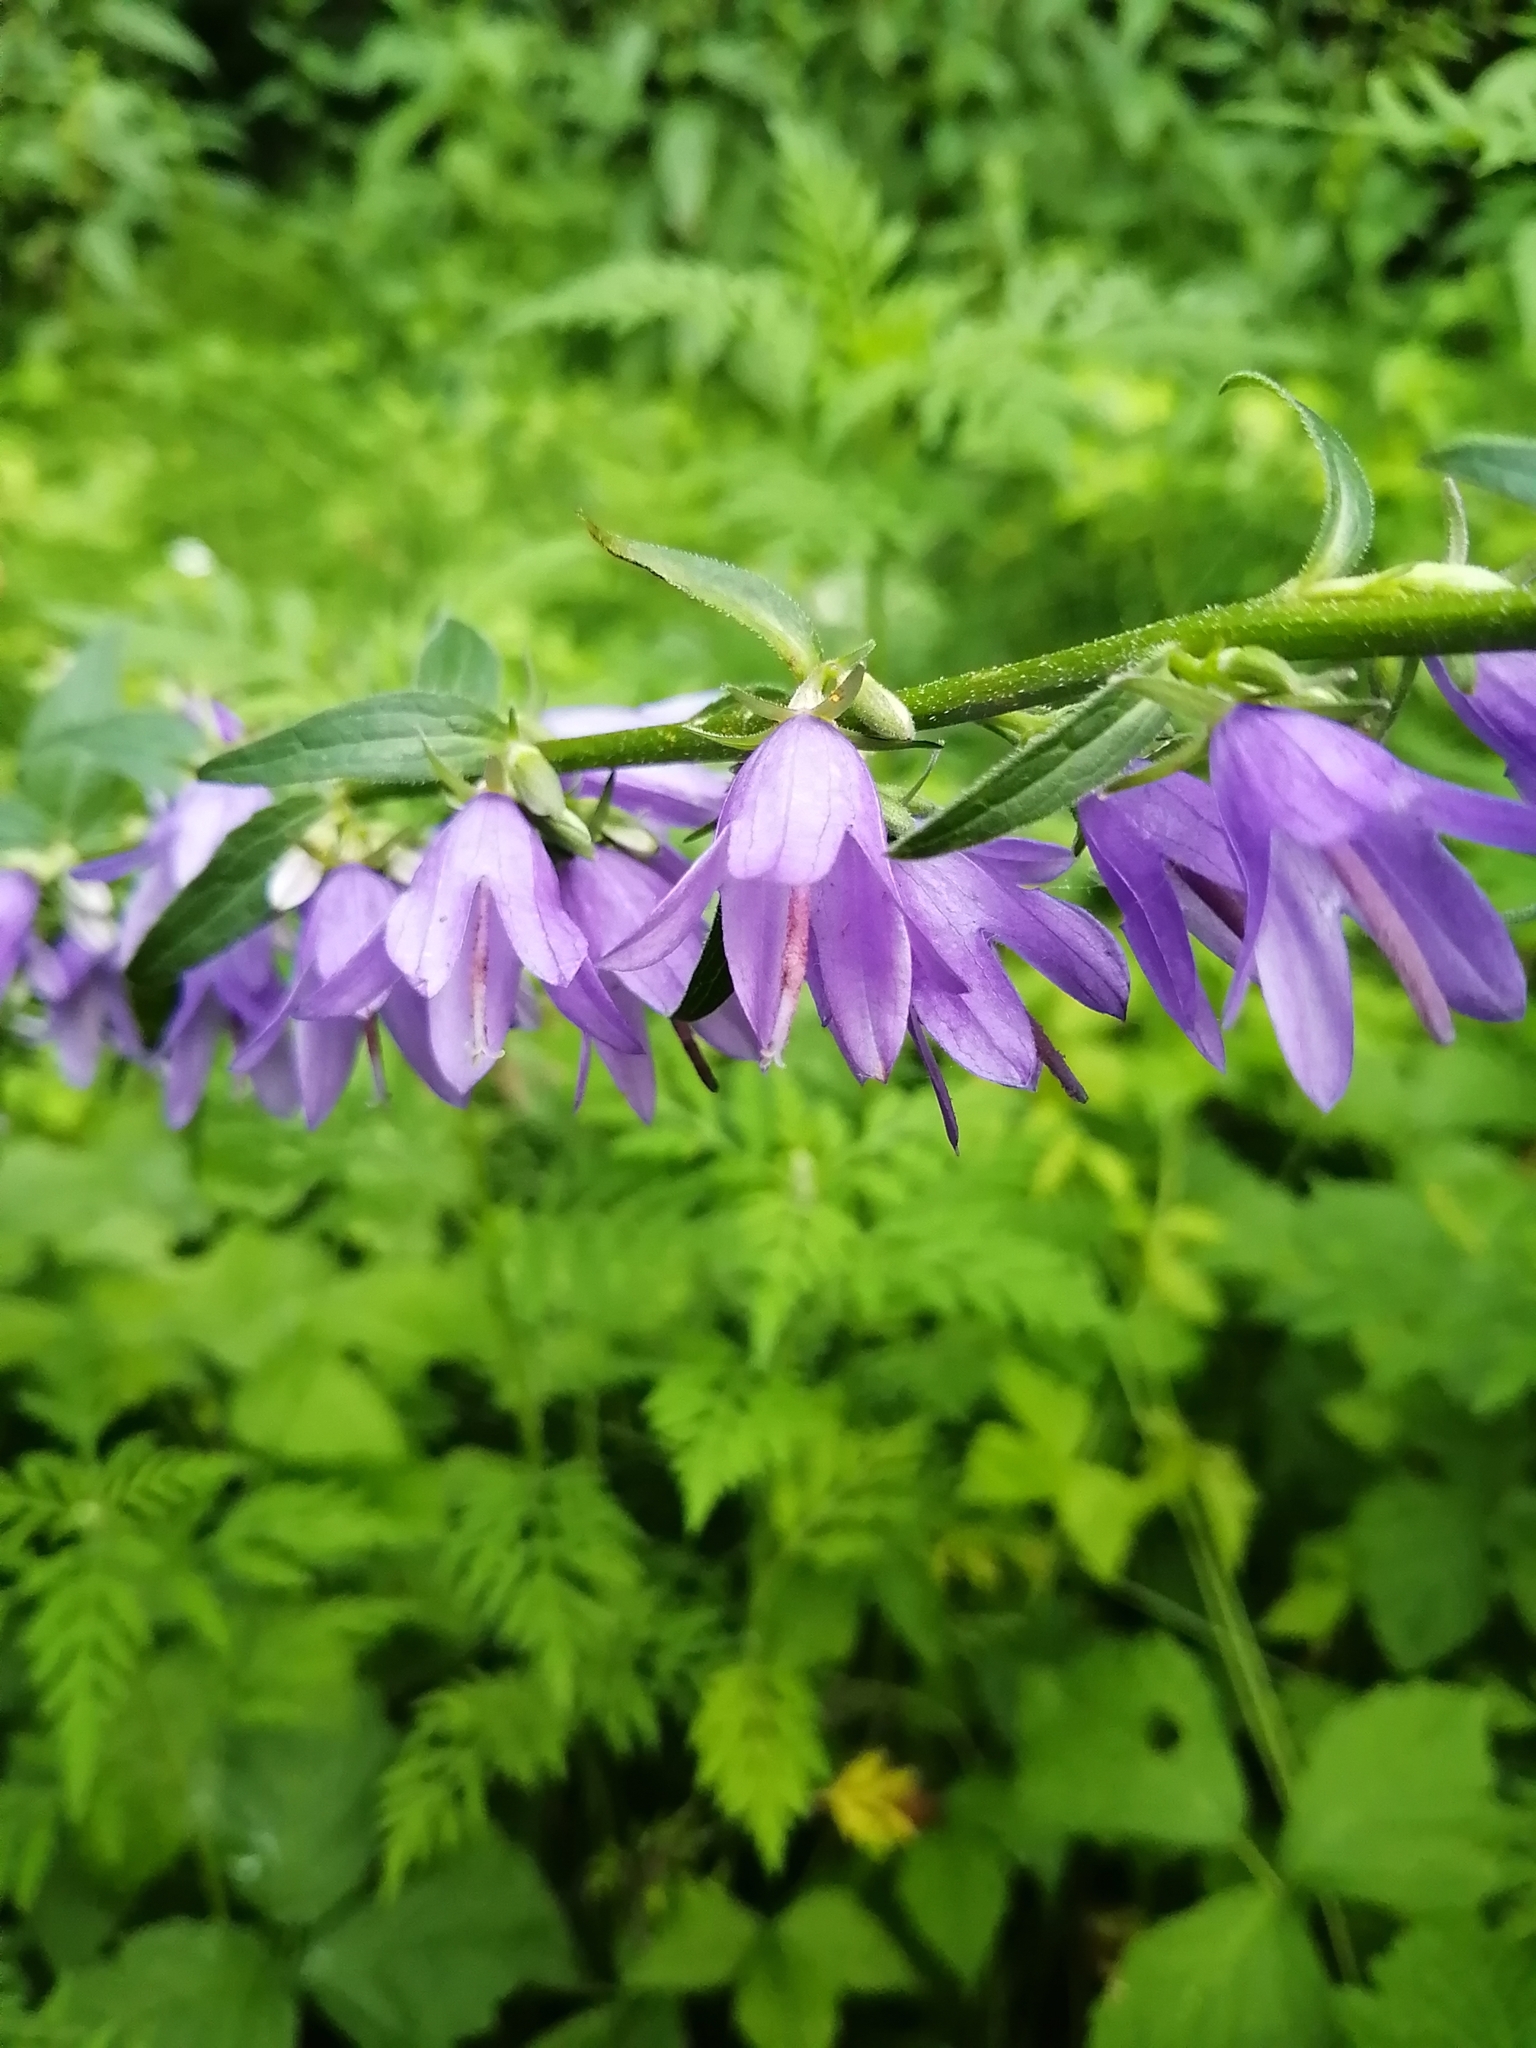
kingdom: Plantae
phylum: Tracheophyta
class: Magnoliopsida
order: Asterales
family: Campanulaceae
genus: Campanula
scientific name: Campanula rapunculoides
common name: Creeping bellflower
